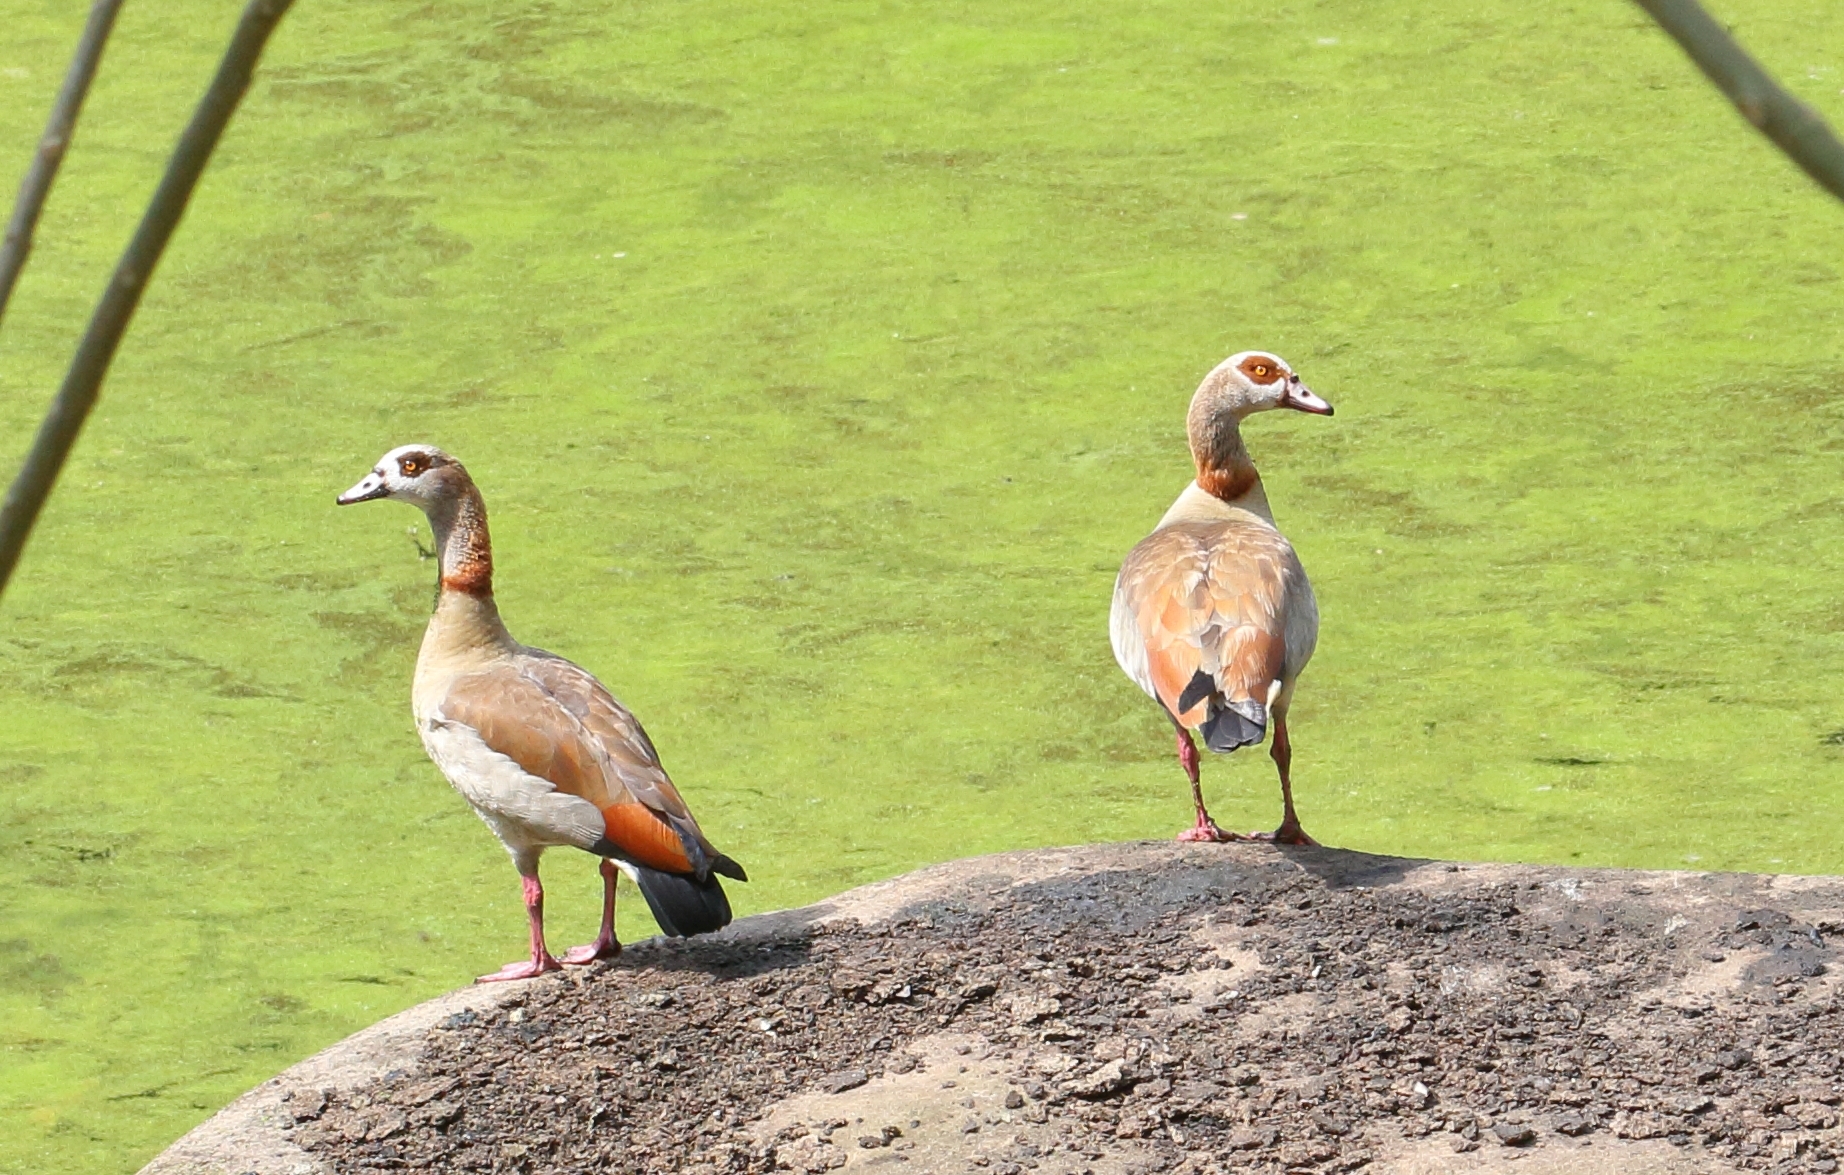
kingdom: Animalia
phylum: Chordata
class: Aves
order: Anseriformes
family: Anatidae
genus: Alopochen
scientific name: Alopochen aegyptiaca
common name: Egyptian goose
